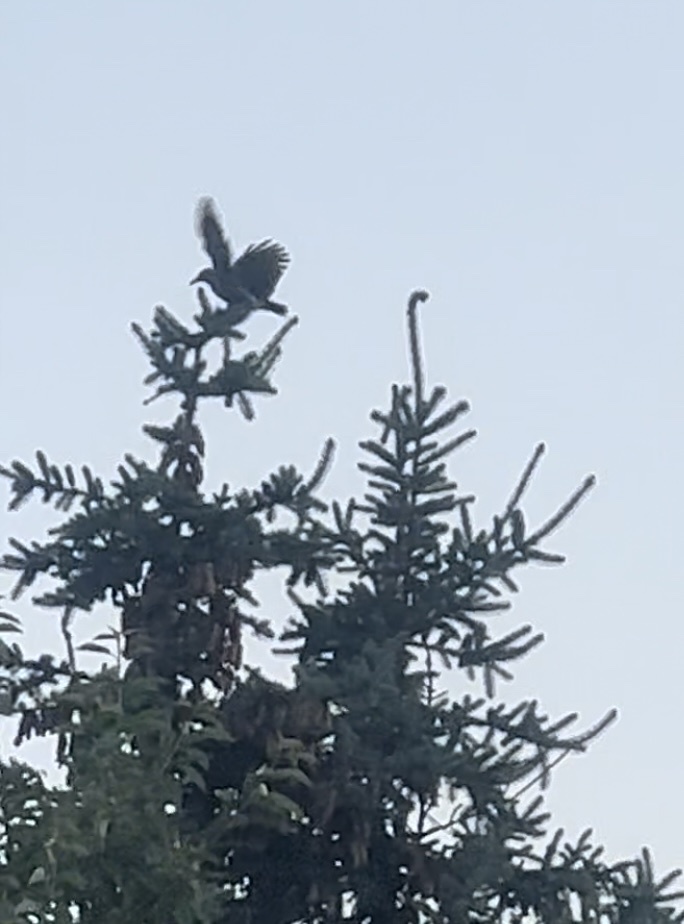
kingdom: Animalia
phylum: Chordata
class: Aves
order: Passeriformes
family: Corvidae
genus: Nucifraga
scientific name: Nucifraga caryocatactes
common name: Spotted nutcracker
